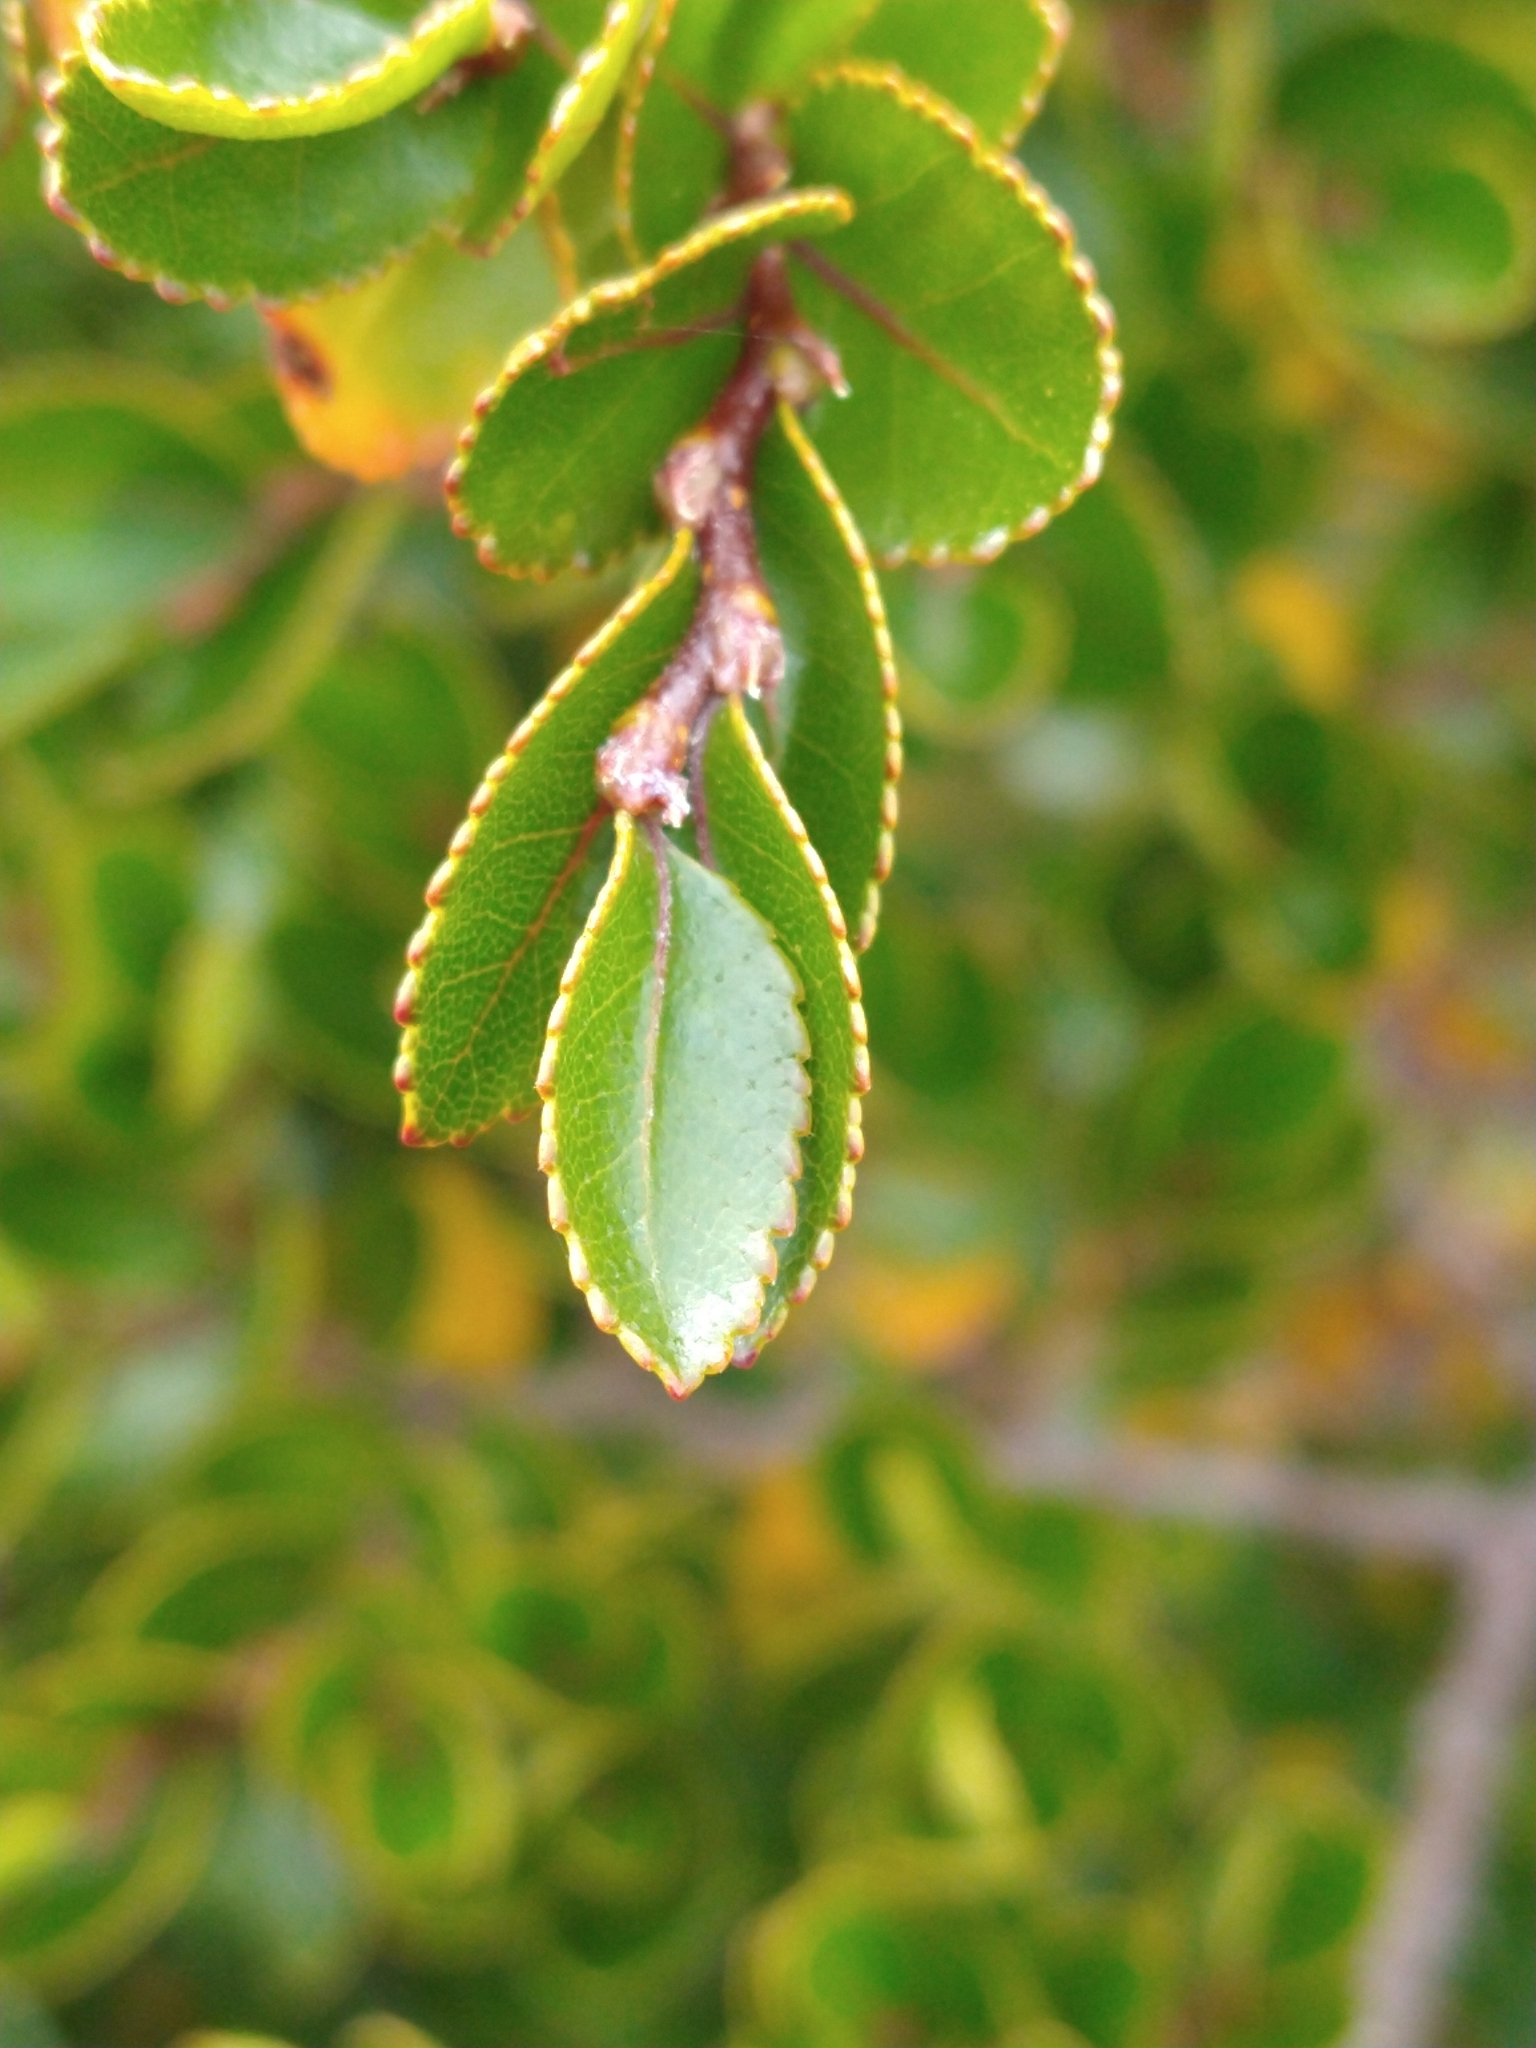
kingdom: Plantae
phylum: Tracheophyta
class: Magnoliopsida
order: Fagales
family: Nothofagaceae
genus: Nothofagus
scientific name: Nothofagus betuloides
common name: Magellan's beech
